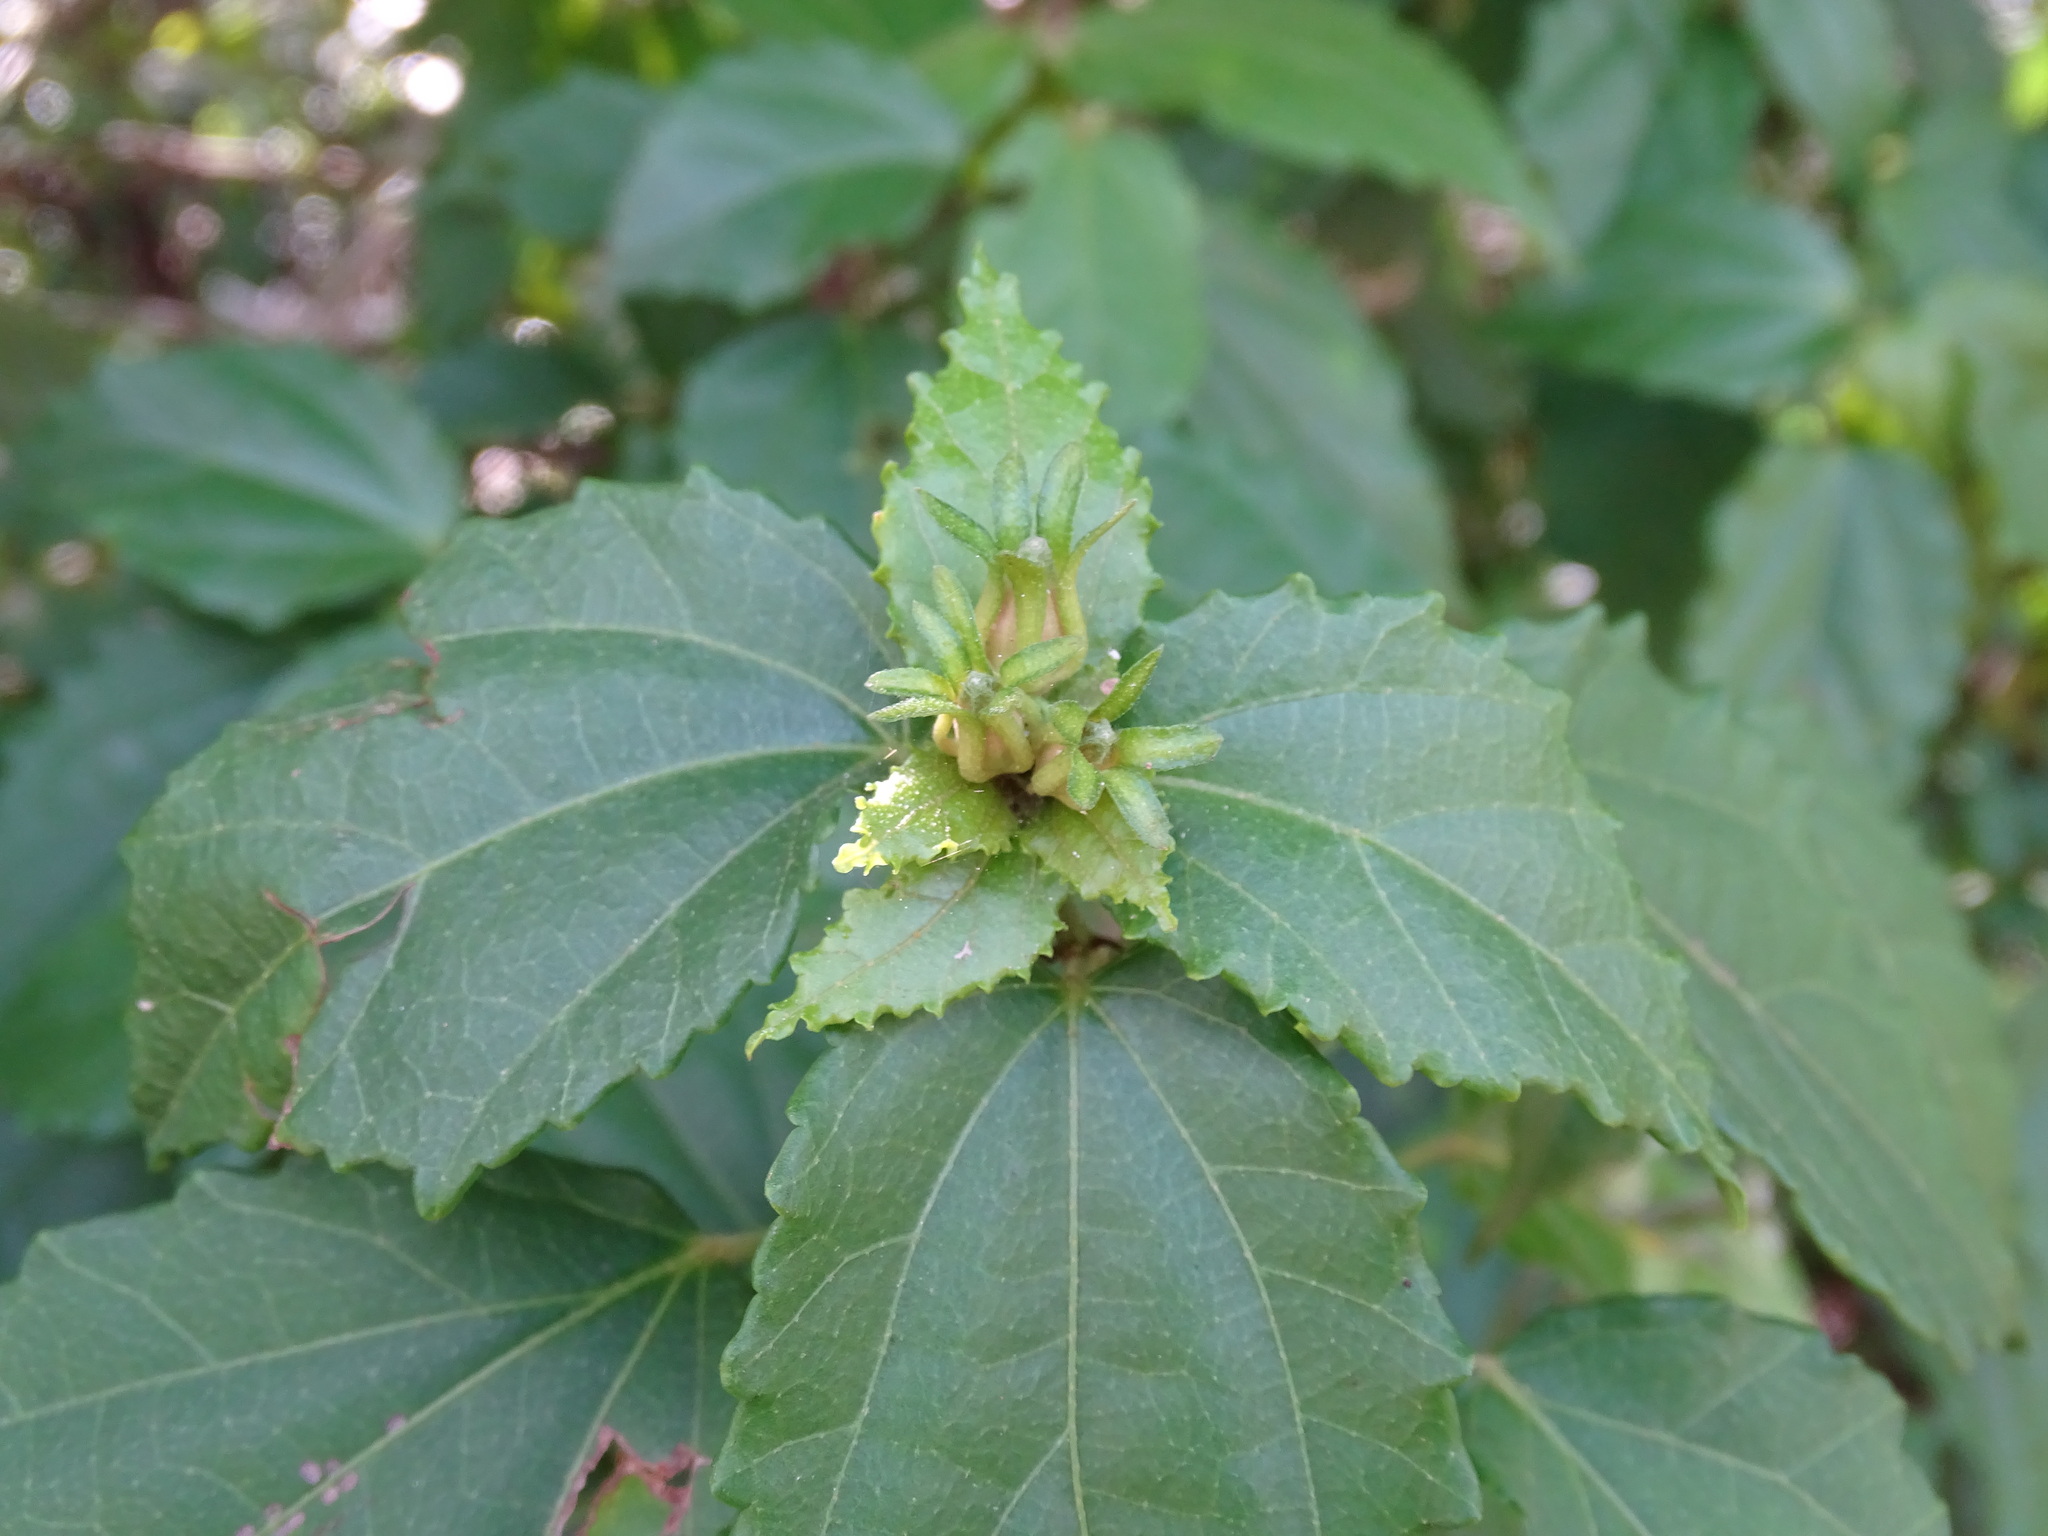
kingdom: Plantae
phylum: Tracheophyta
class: Magnoliopsida
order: Malvales
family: Malvaceae
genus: Malvaviscus
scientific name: Malvaviscus arboreus
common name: Wax mallow
